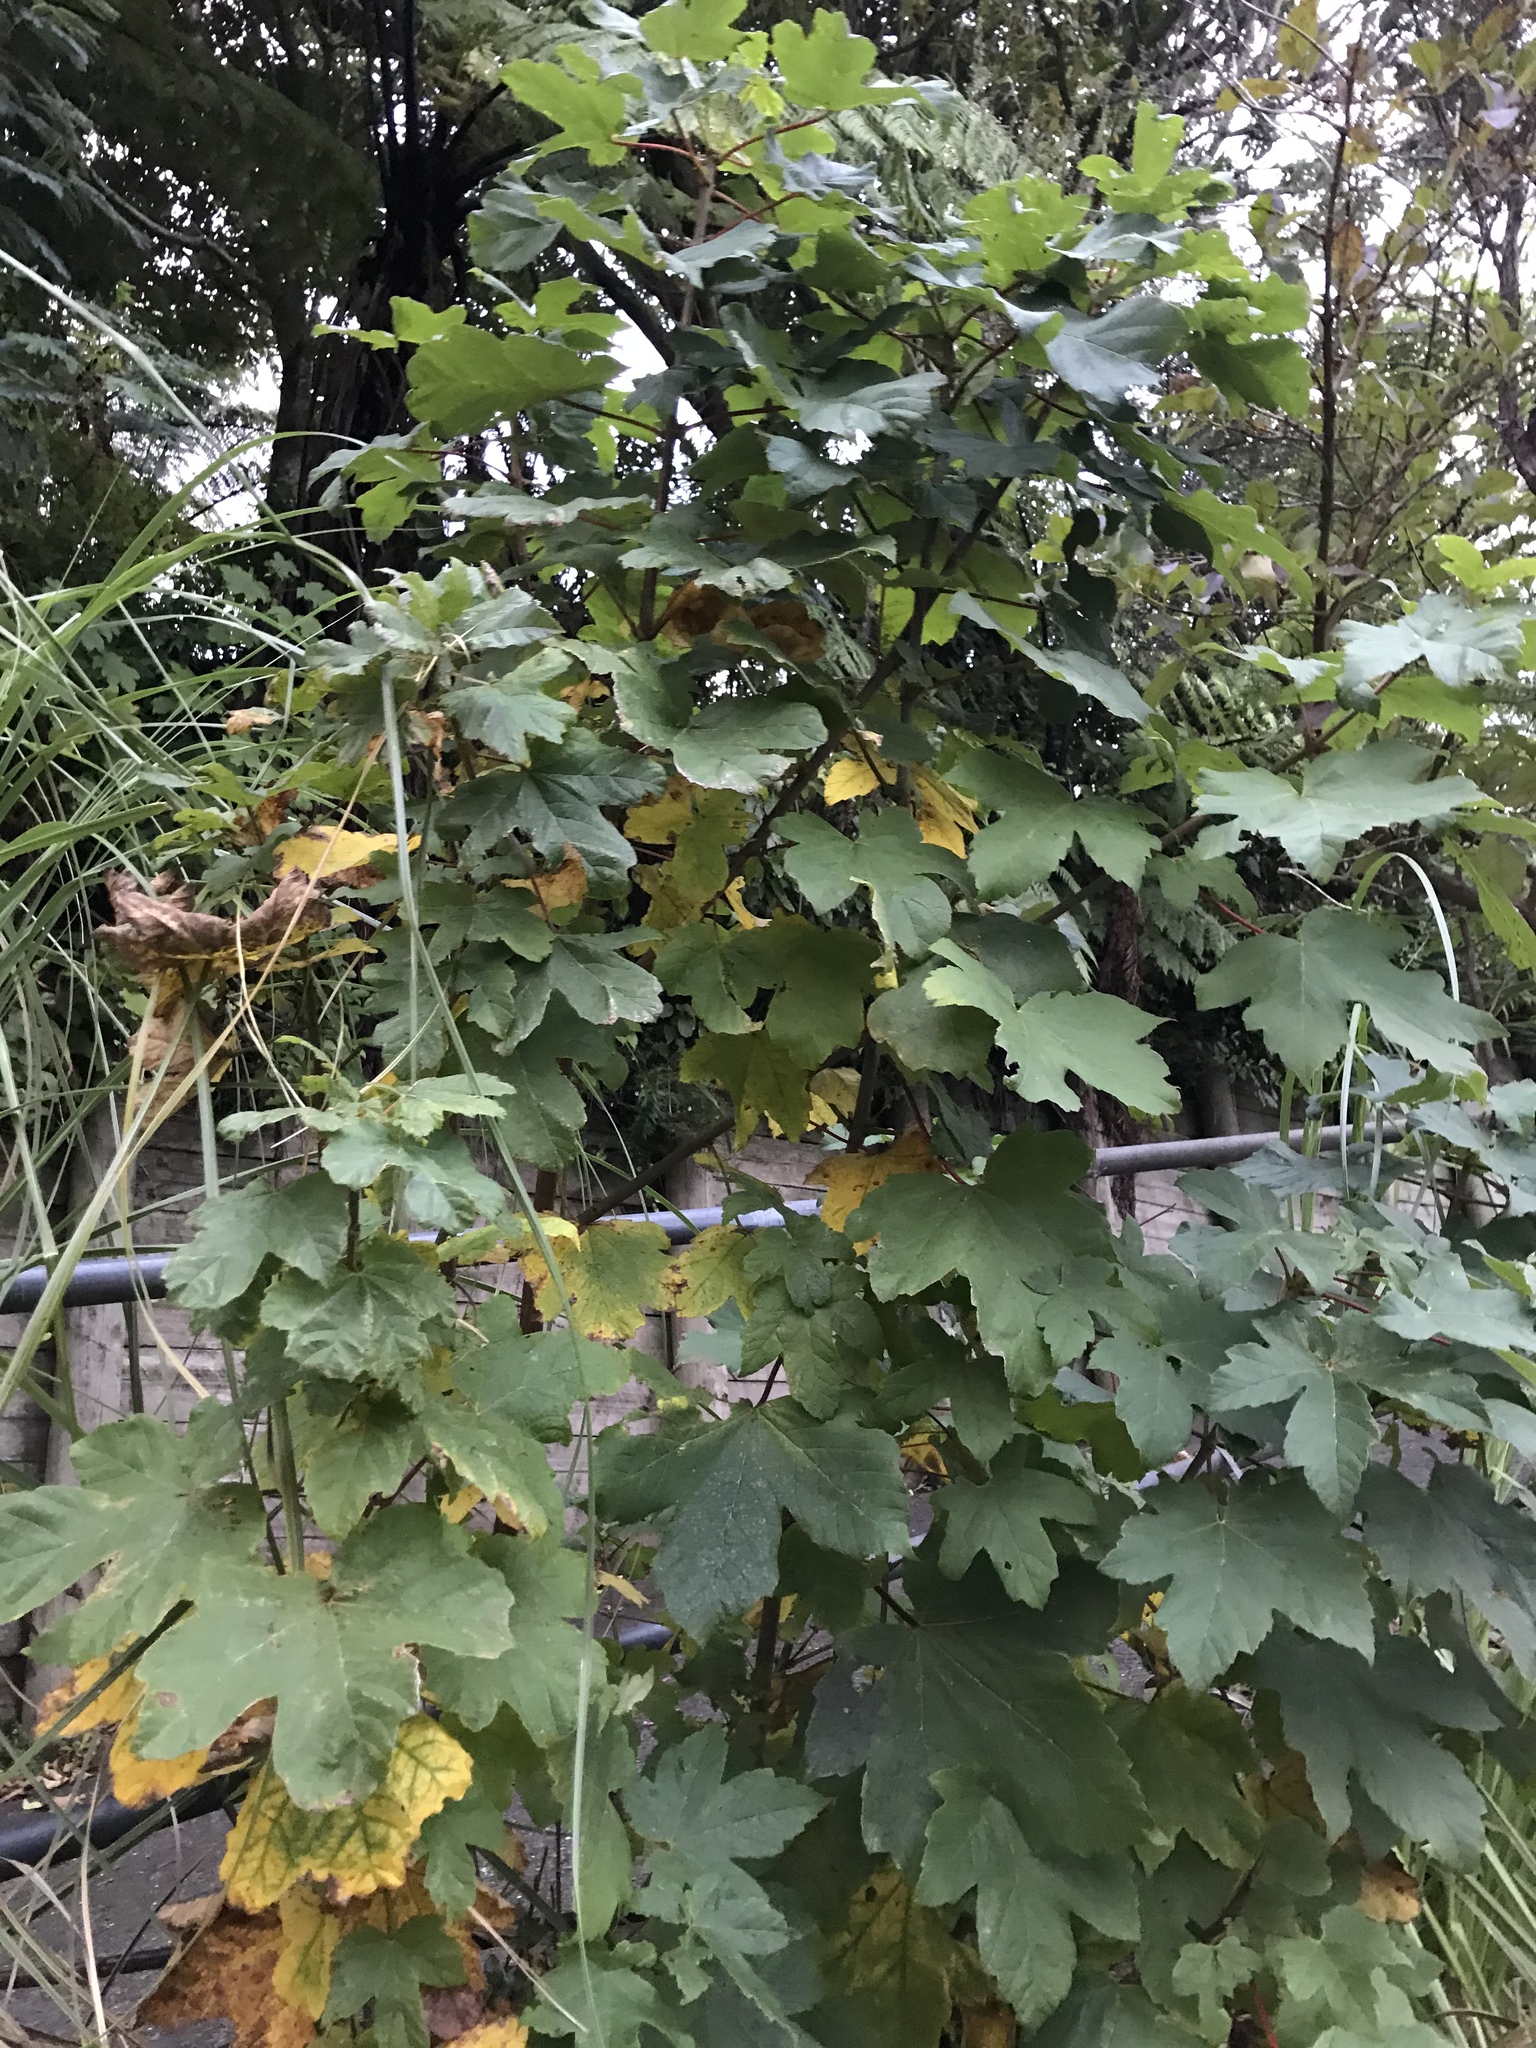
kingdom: Plantae
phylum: Tracheophyta
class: Magnoliopsida
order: Sapindales
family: Sapindaceae
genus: Acer
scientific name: Acer pseudoplatanus
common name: Sycamore
